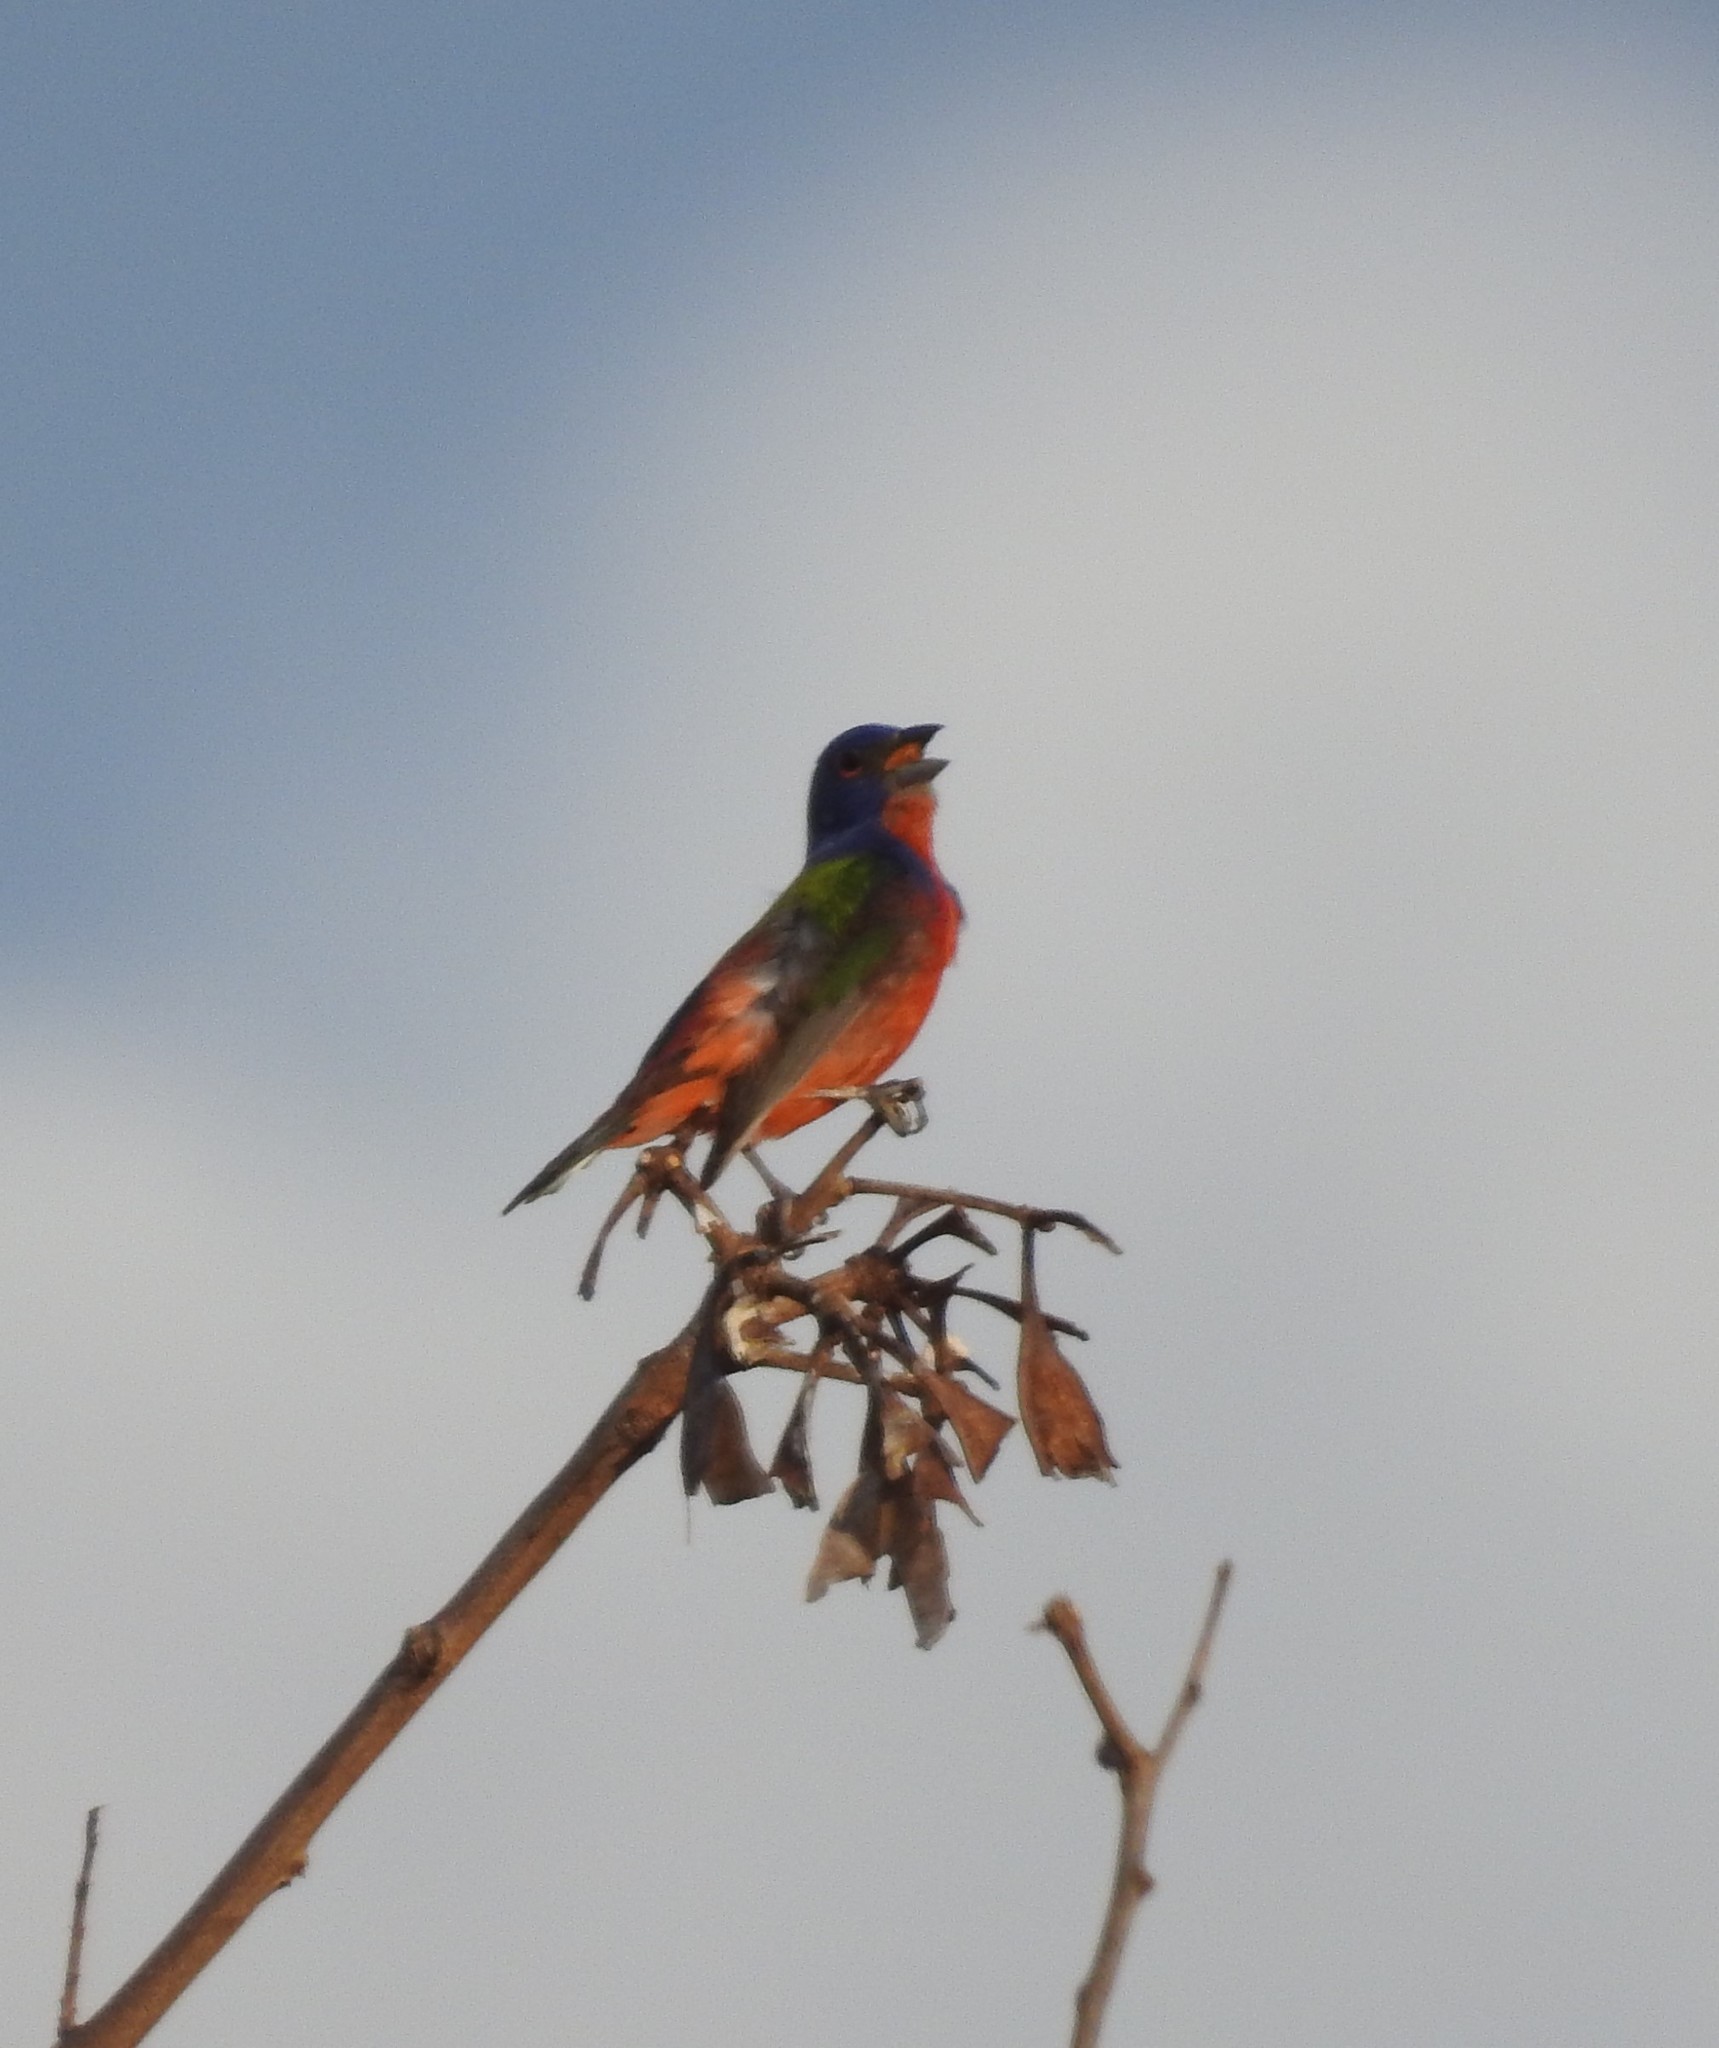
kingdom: Animalia
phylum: Chordata
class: Aves
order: Passeriformes
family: Cardinalidae
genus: Passerina
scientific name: Passerina ciris
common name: Painted bunting
